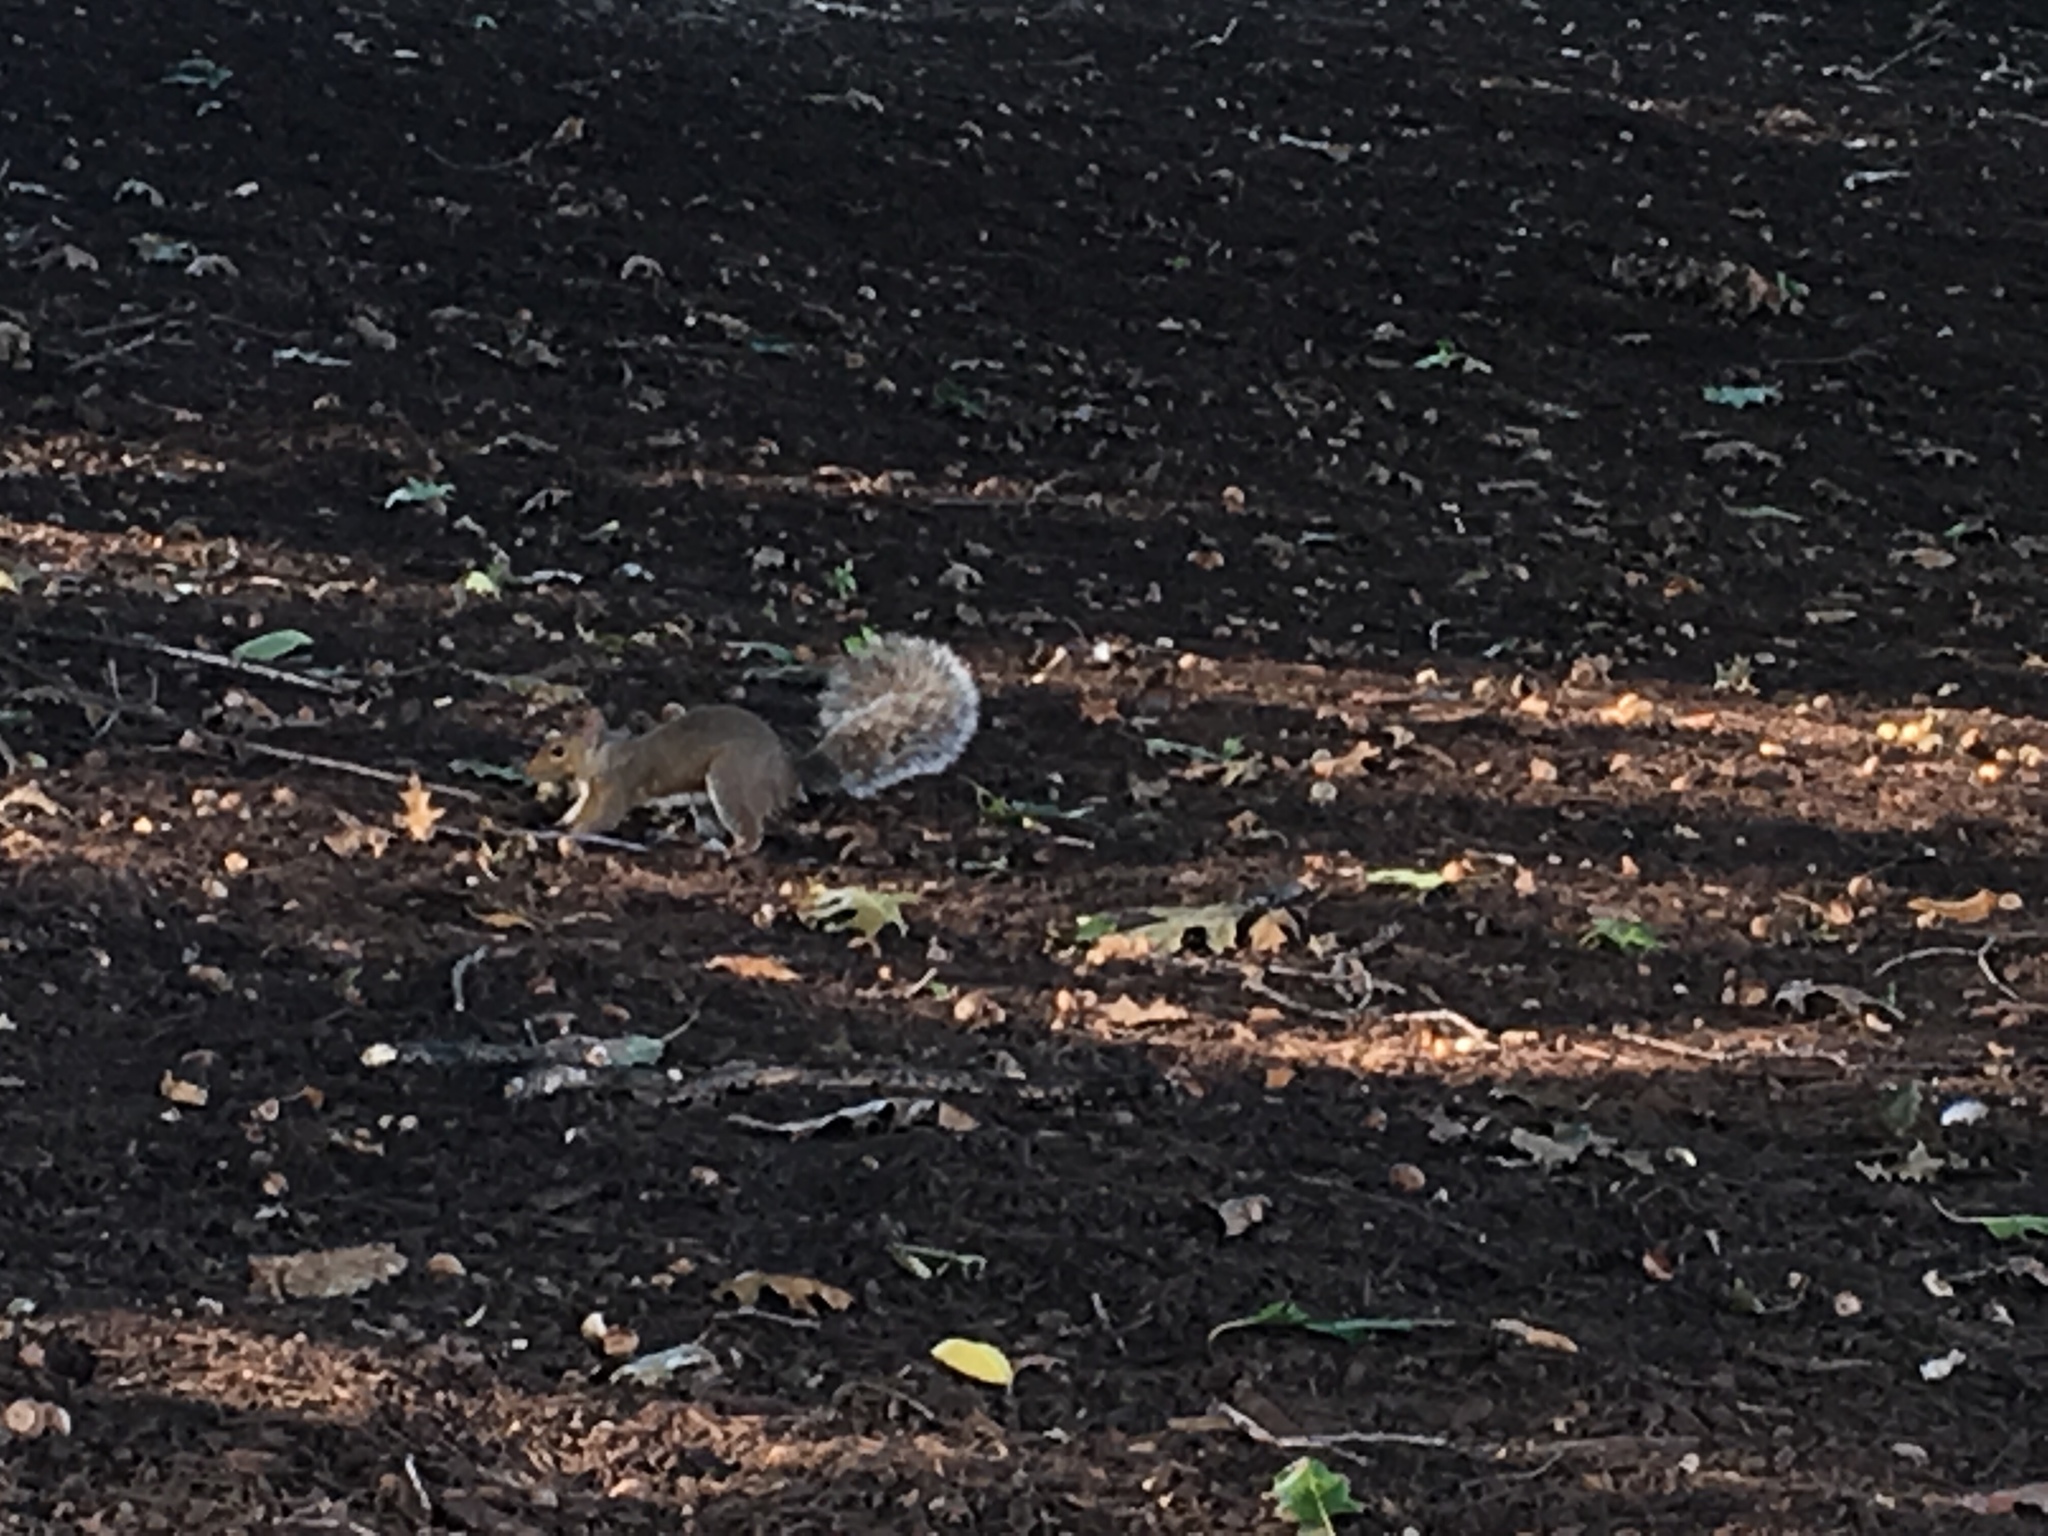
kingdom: Animalia
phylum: Chordata
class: Mammalia
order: Rodentia
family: Sciuridae
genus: Sciurus
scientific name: Sciurus carolinensis
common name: Eastern gray squirrel
